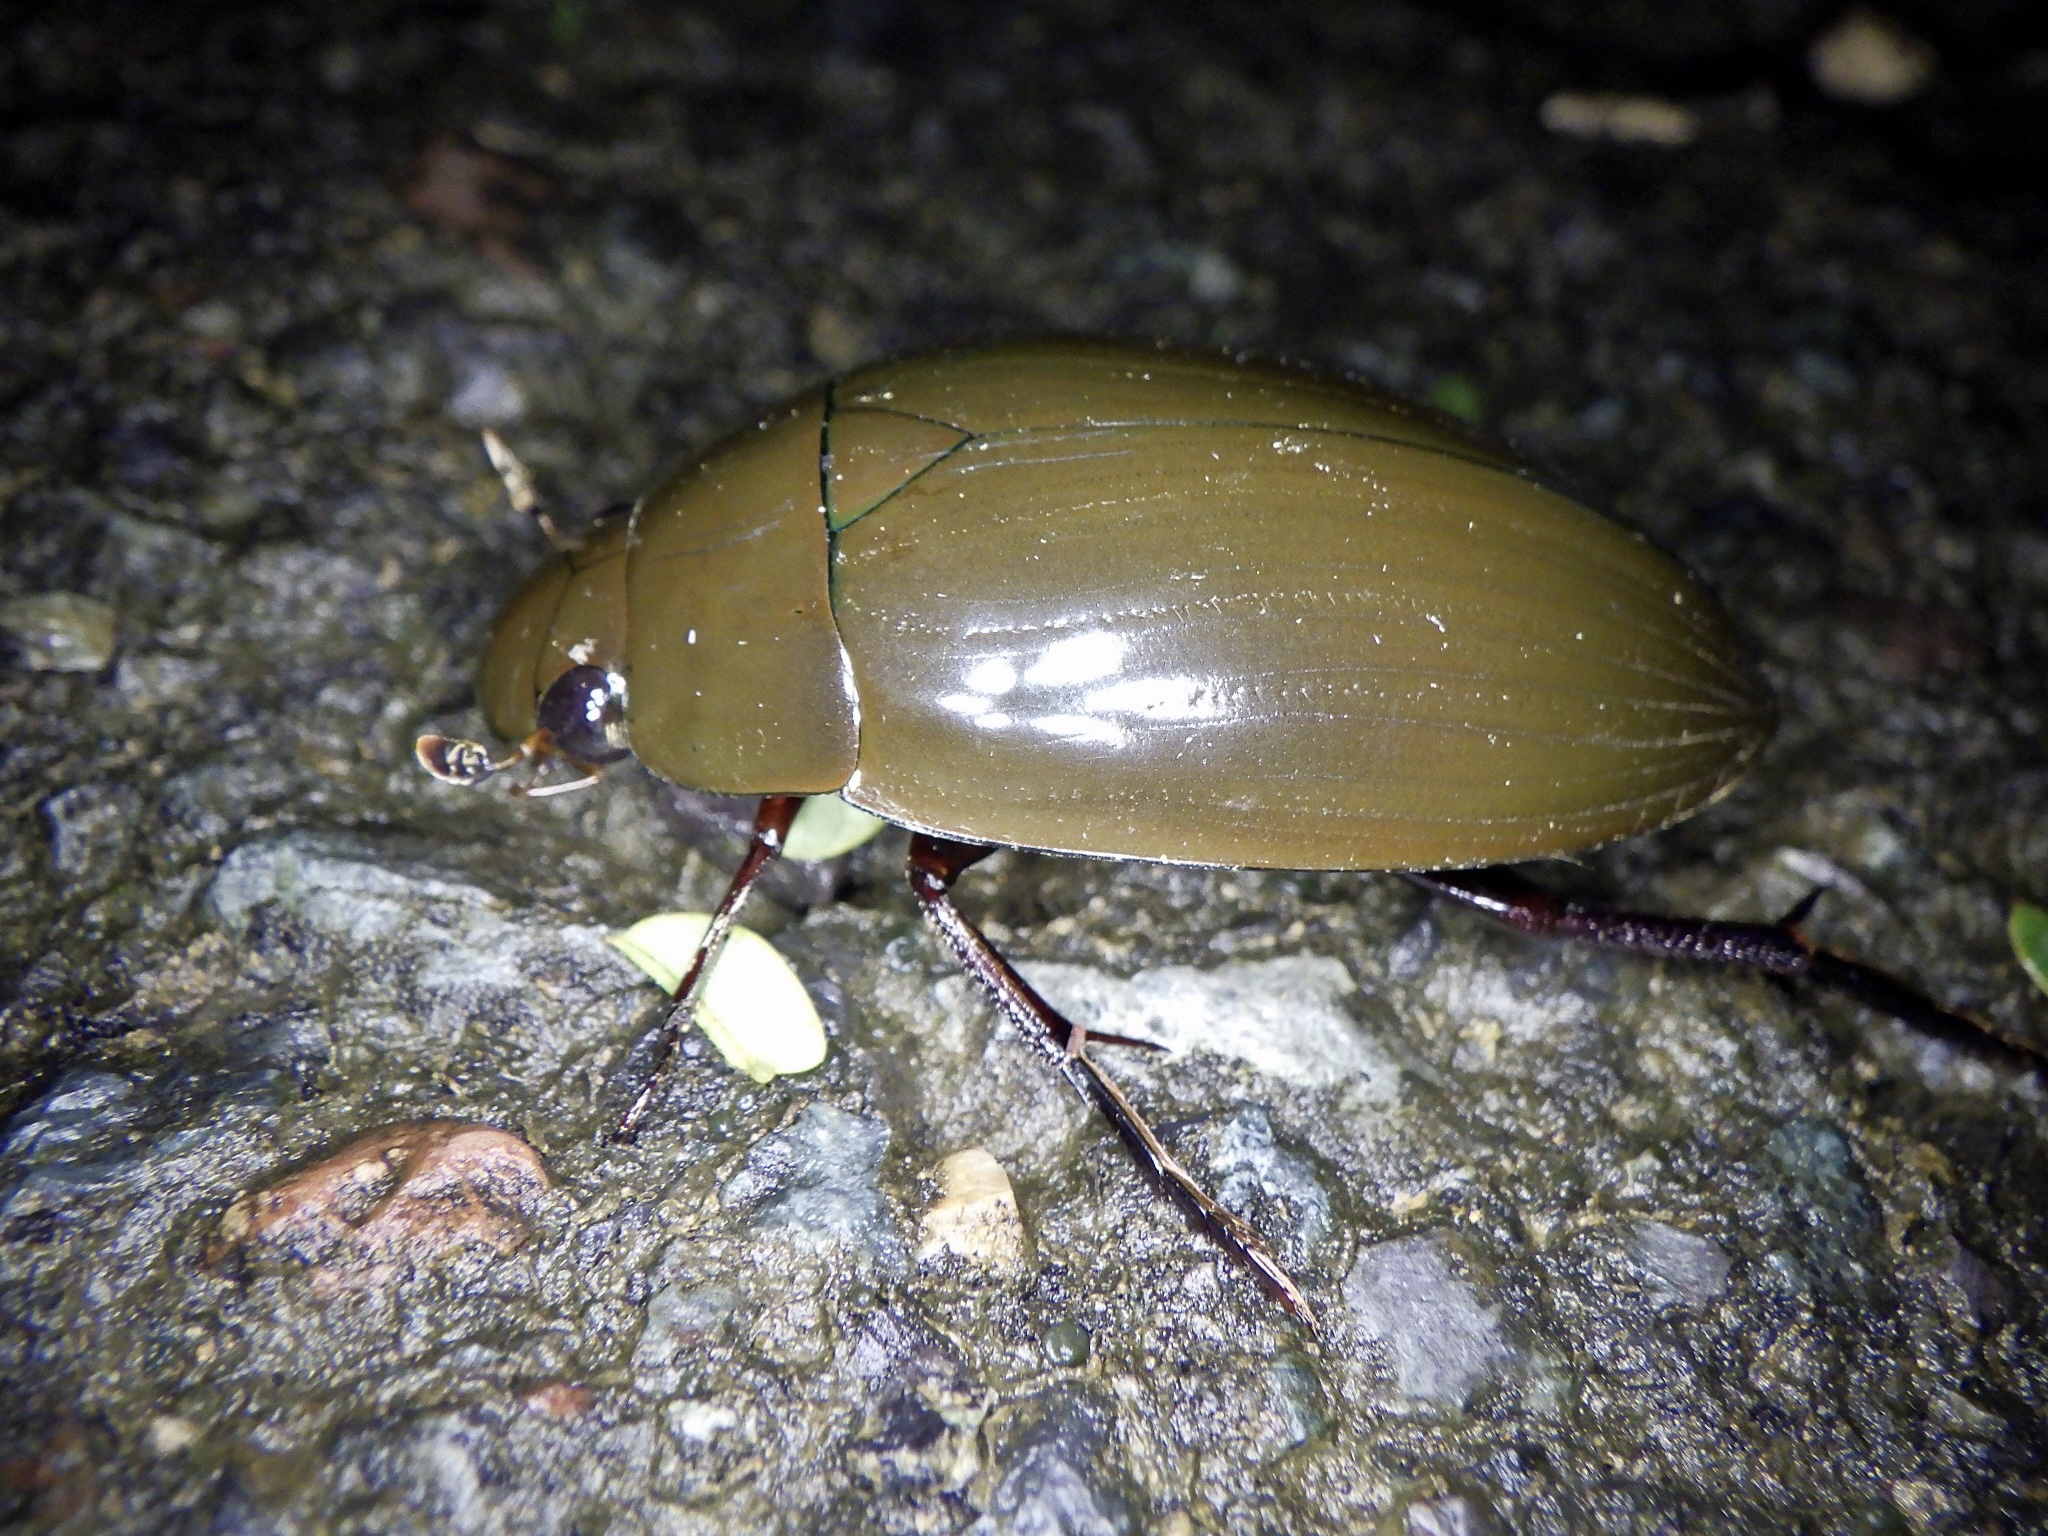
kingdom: Animalia
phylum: Arthropoda
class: Insecta
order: Coleoptera
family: Hydrophilidae
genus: Hydrophilus
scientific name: Hydrophilus acuminatus
